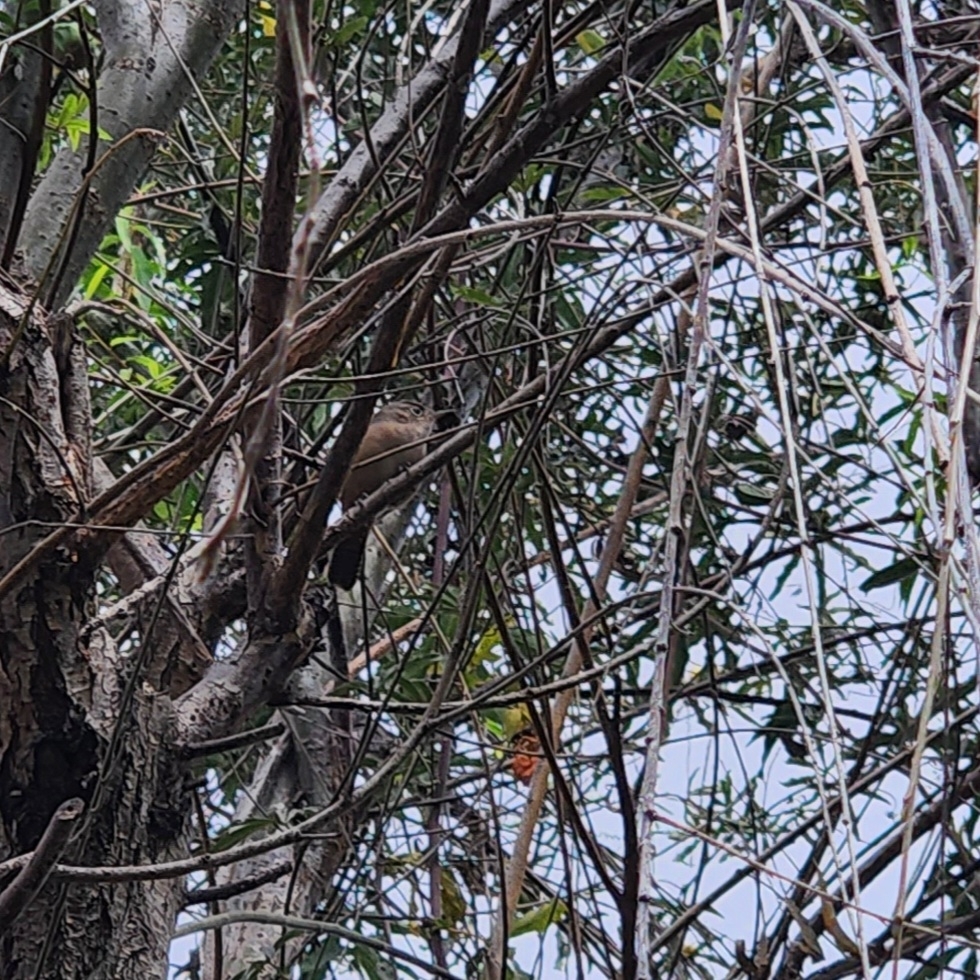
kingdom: Animalia
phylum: Chordata
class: Aves
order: Passeriformes
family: Troglodytidae
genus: Troglodytes
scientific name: Troglodytes aedon
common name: House wren
